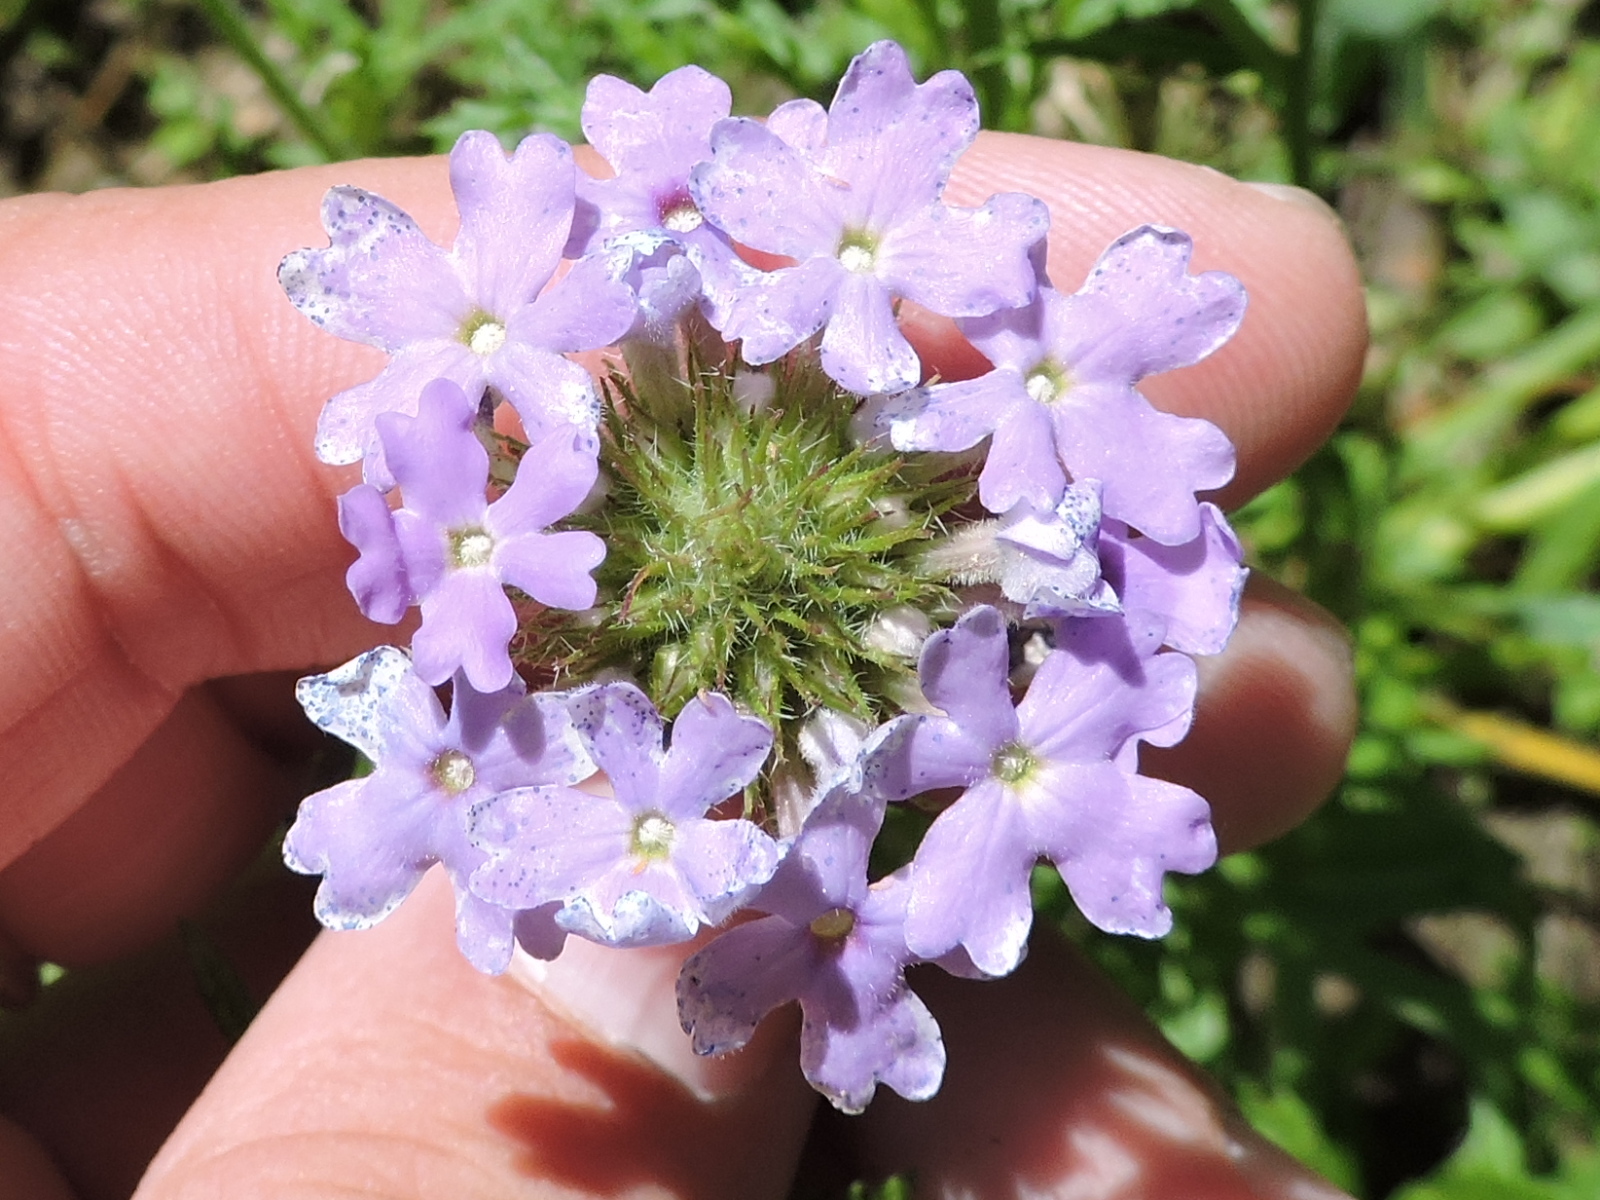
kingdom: Plantae
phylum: Tracheophyta
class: Magnoliopsida
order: Lamiales
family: Verbenaceae
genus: Verbena
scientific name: Verbena bipinnatifida
